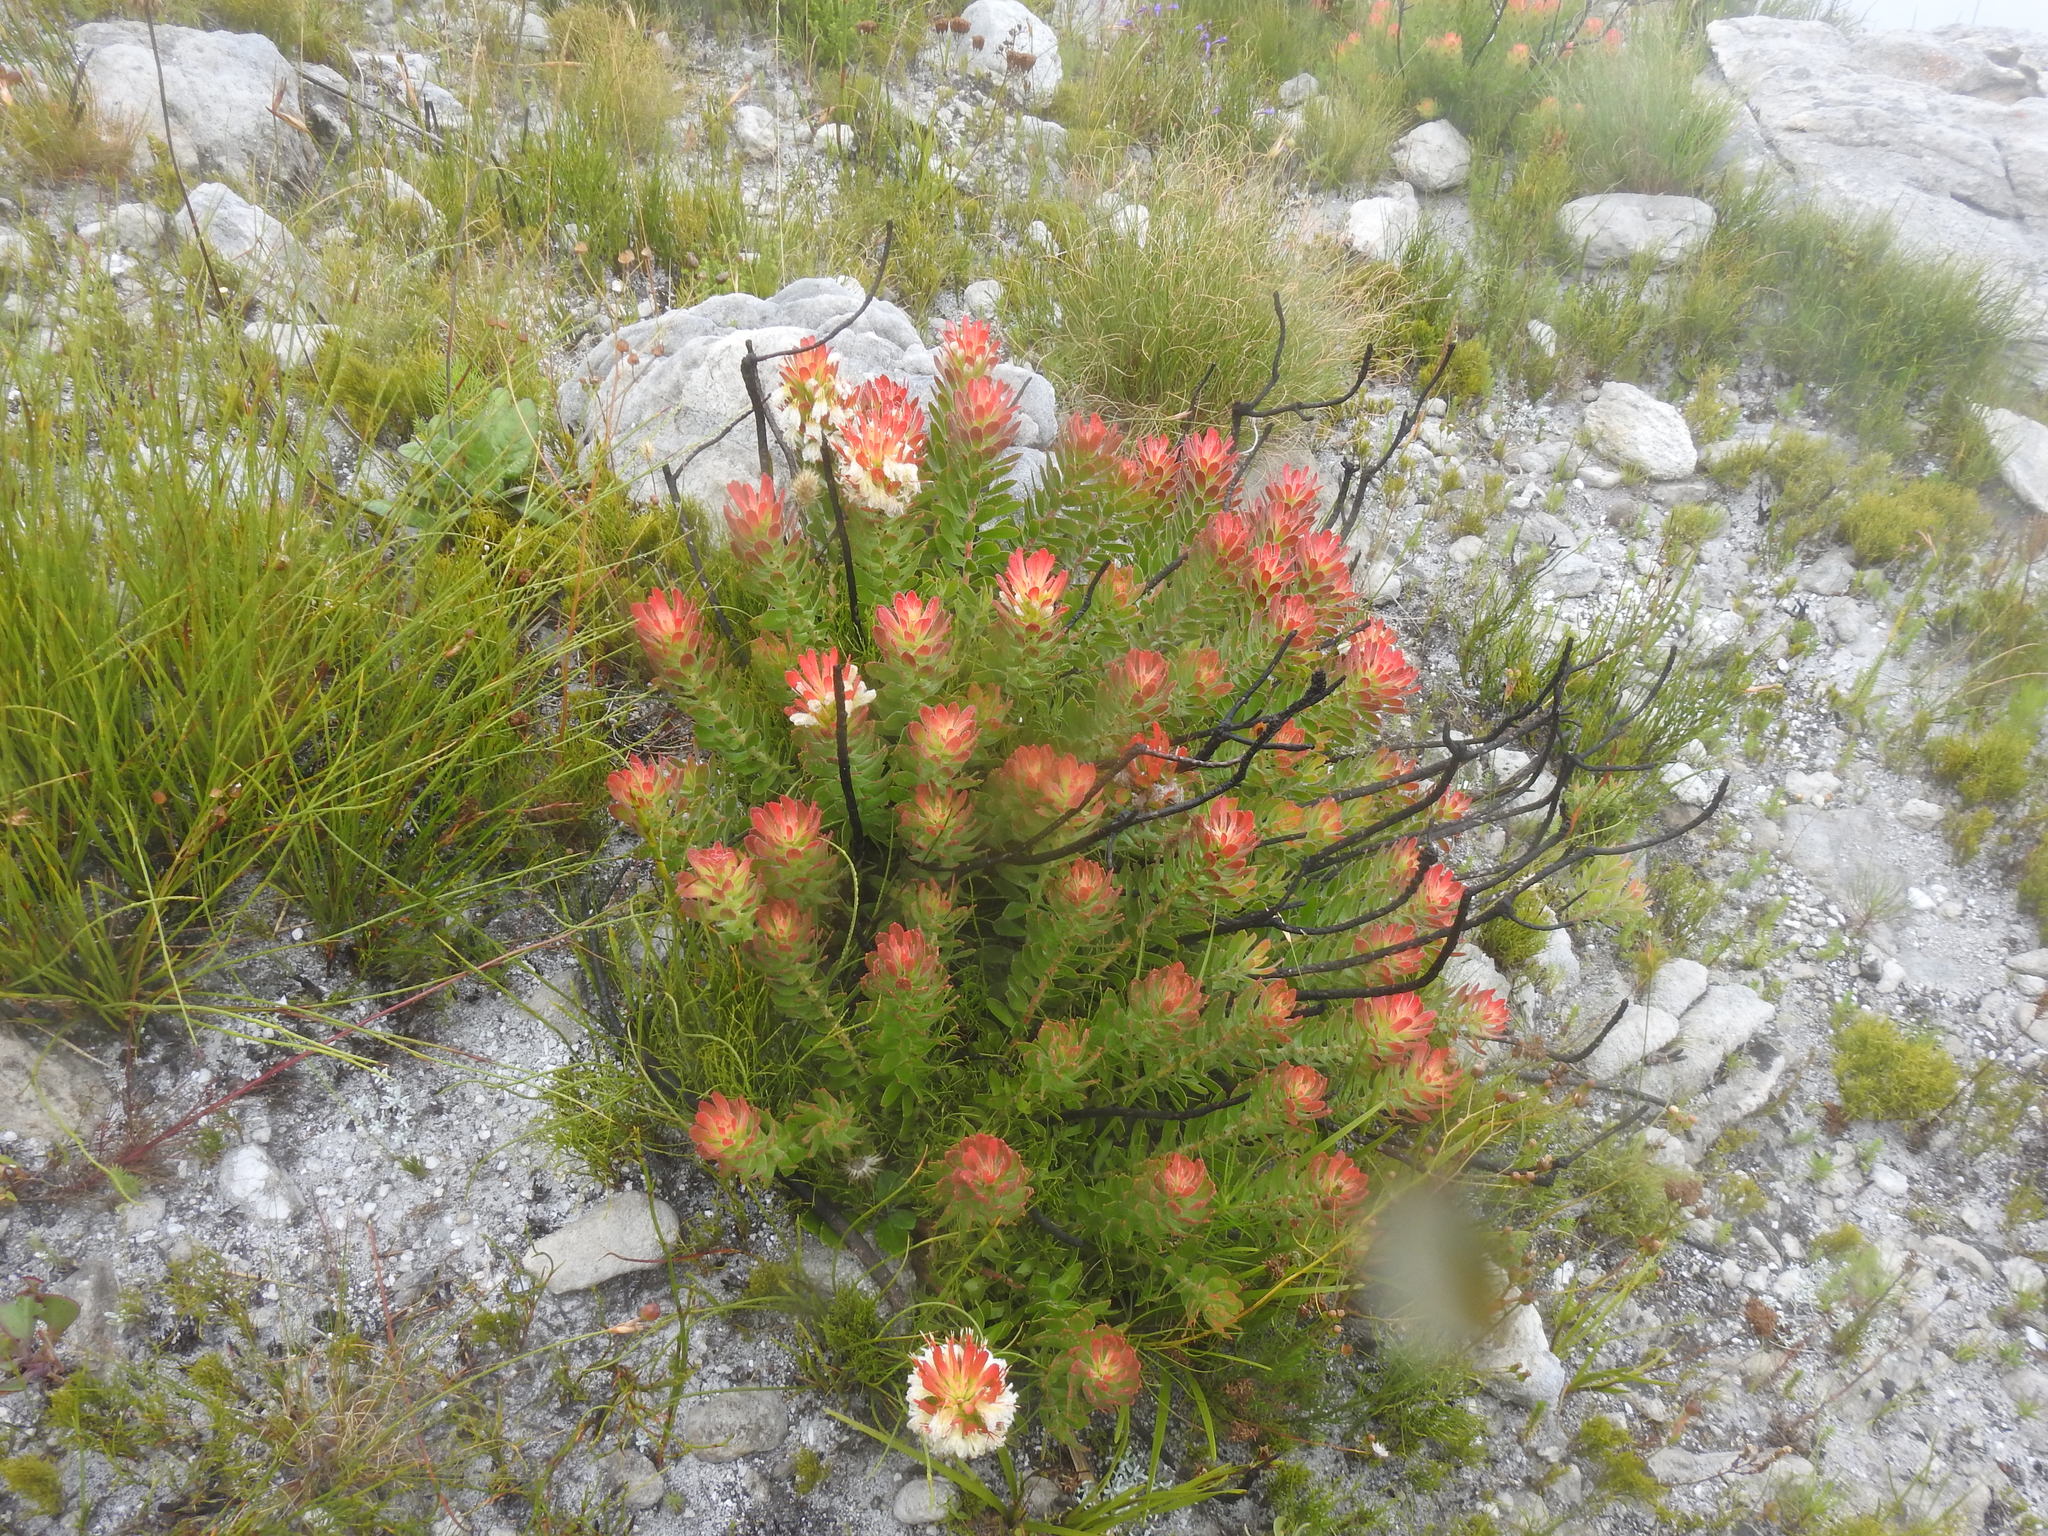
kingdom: Plantae
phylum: Tracheophyta
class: Magnoliopsida
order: Proteales
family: Proteaceae
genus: Mimetes
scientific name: Mimetes cucullatus
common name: Common pagoda
